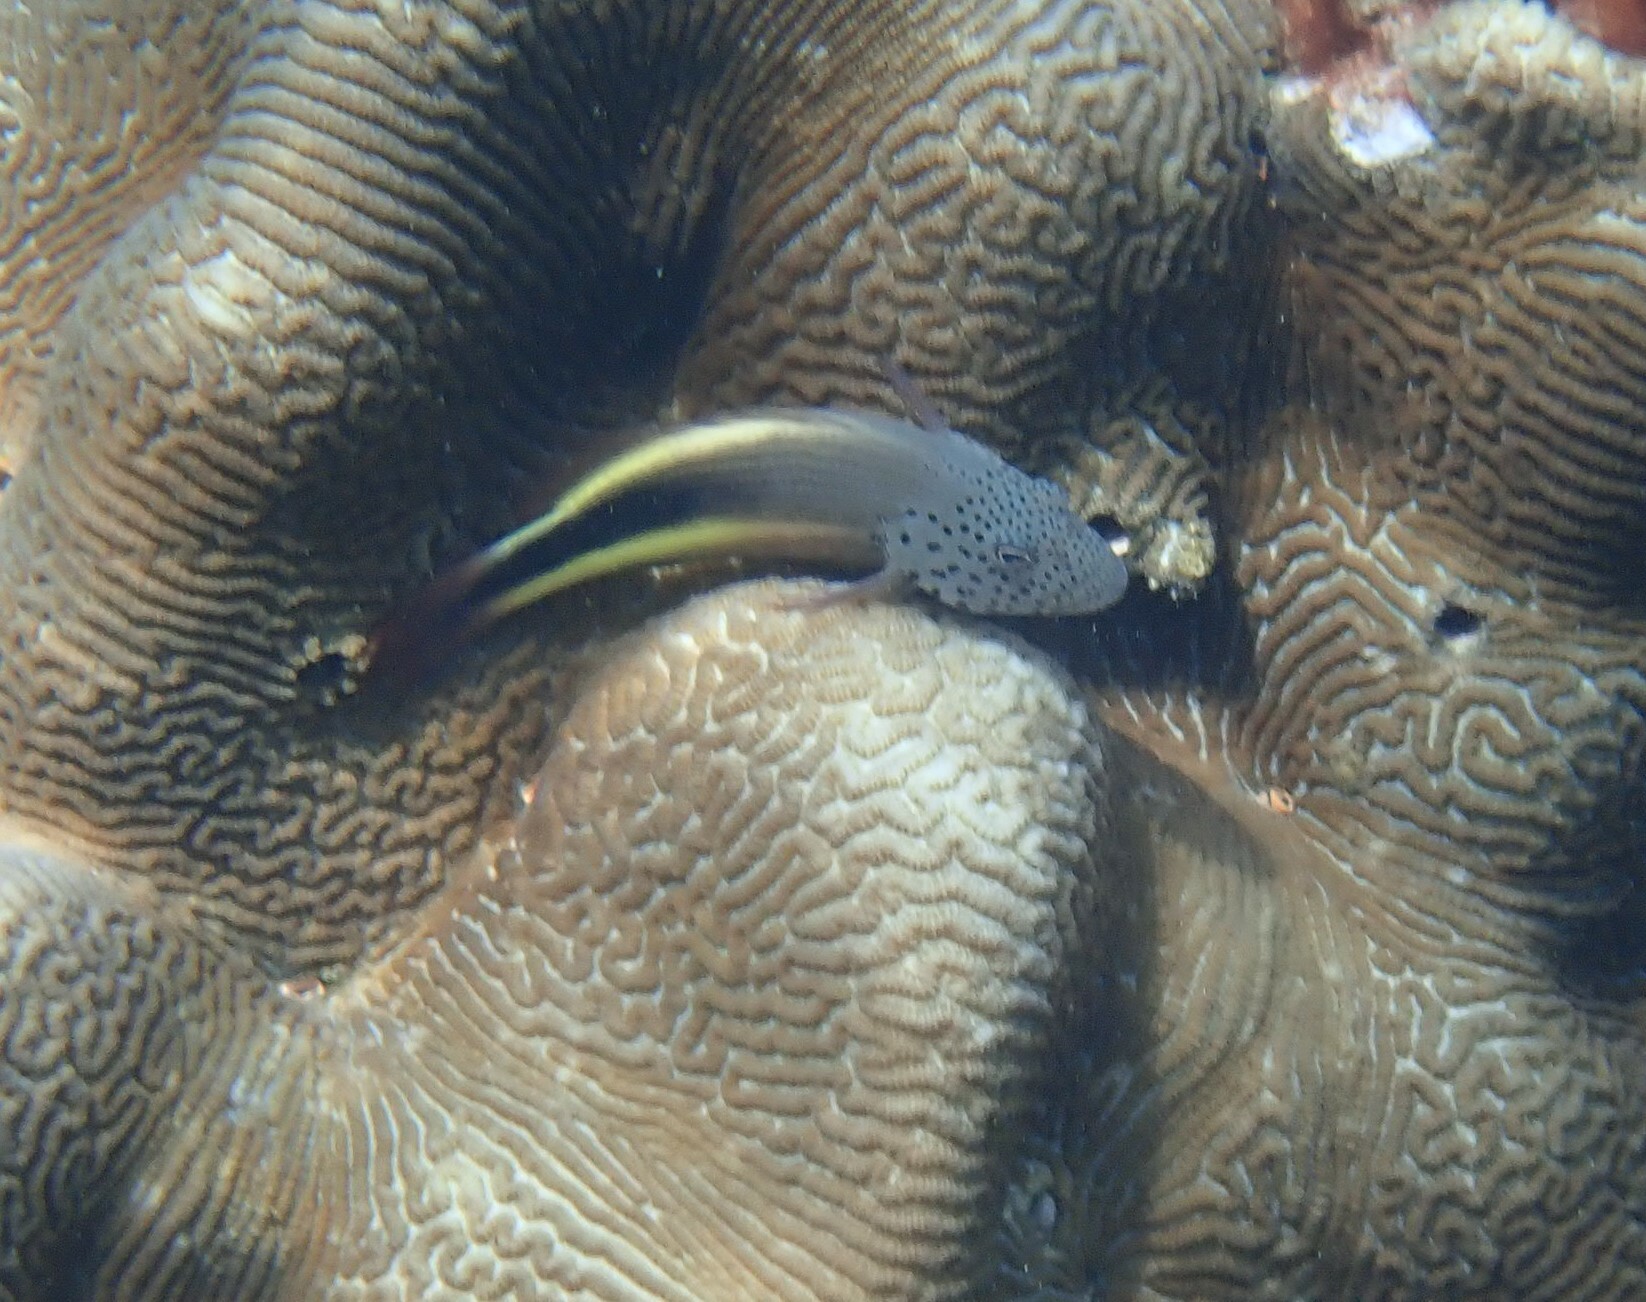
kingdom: Animalia
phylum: Chordata
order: Perciformes
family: Cirrhitidae
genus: Paracirrhites
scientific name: Paracirrhites forsteri
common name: Freckled hawkfish
